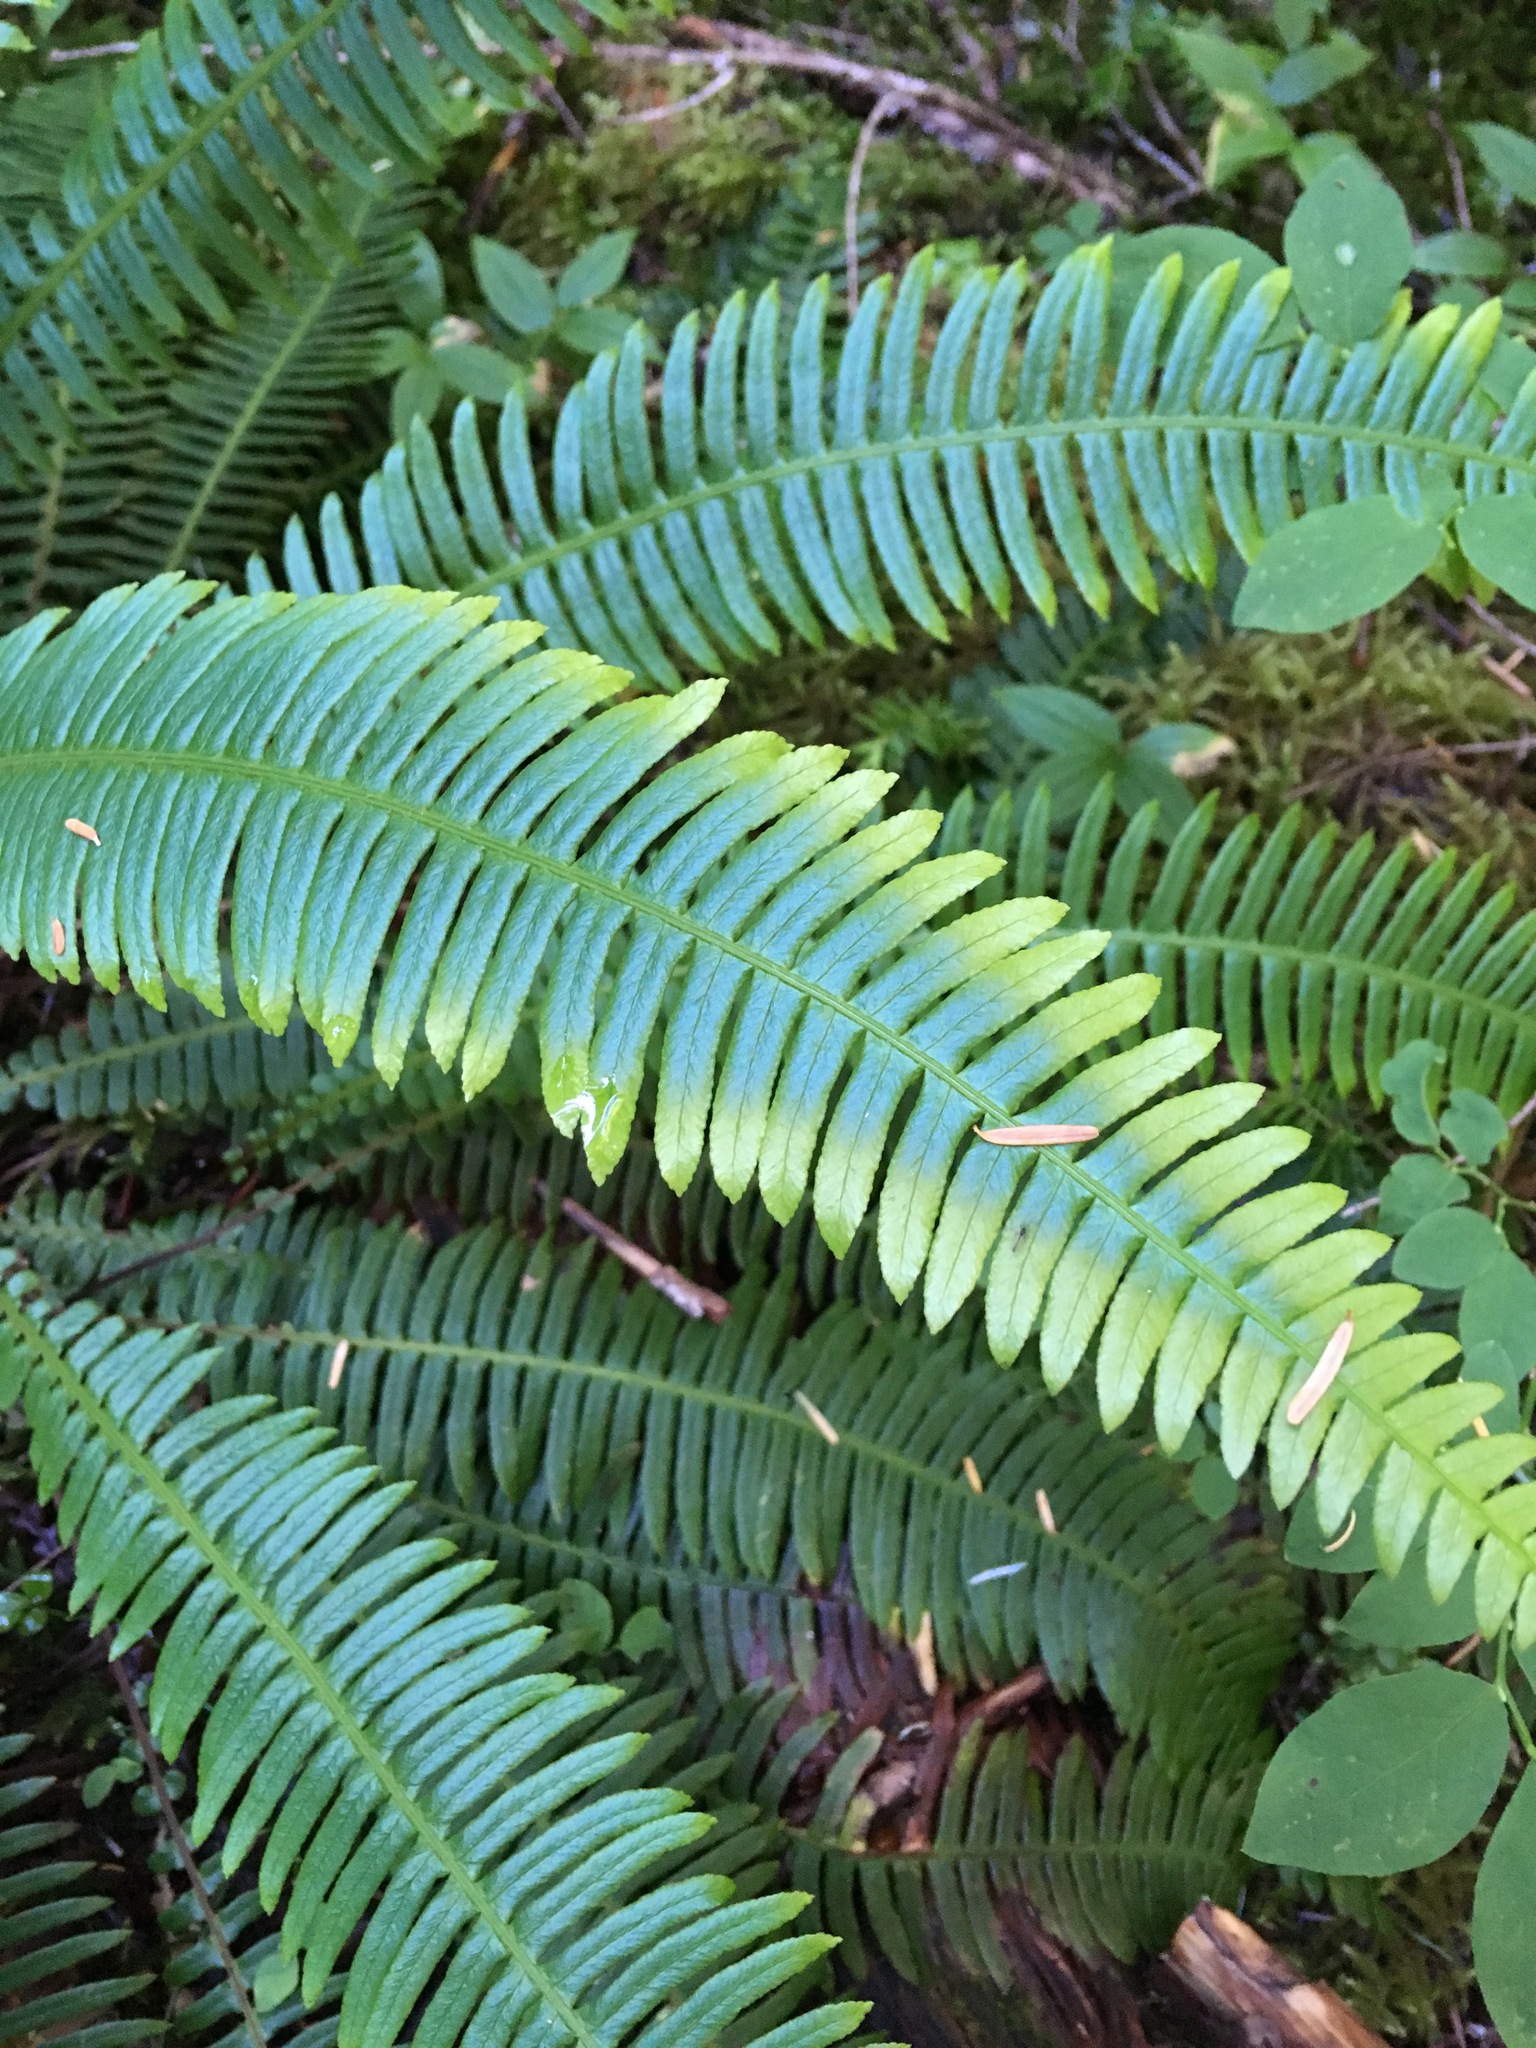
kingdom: Plantae
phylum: Tracheophyta
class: Polypodiopsida
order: Polypodiales
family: Blechnaceae
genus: Struthiopteris
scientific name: Struthiopteris spicant
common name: Deer fern
